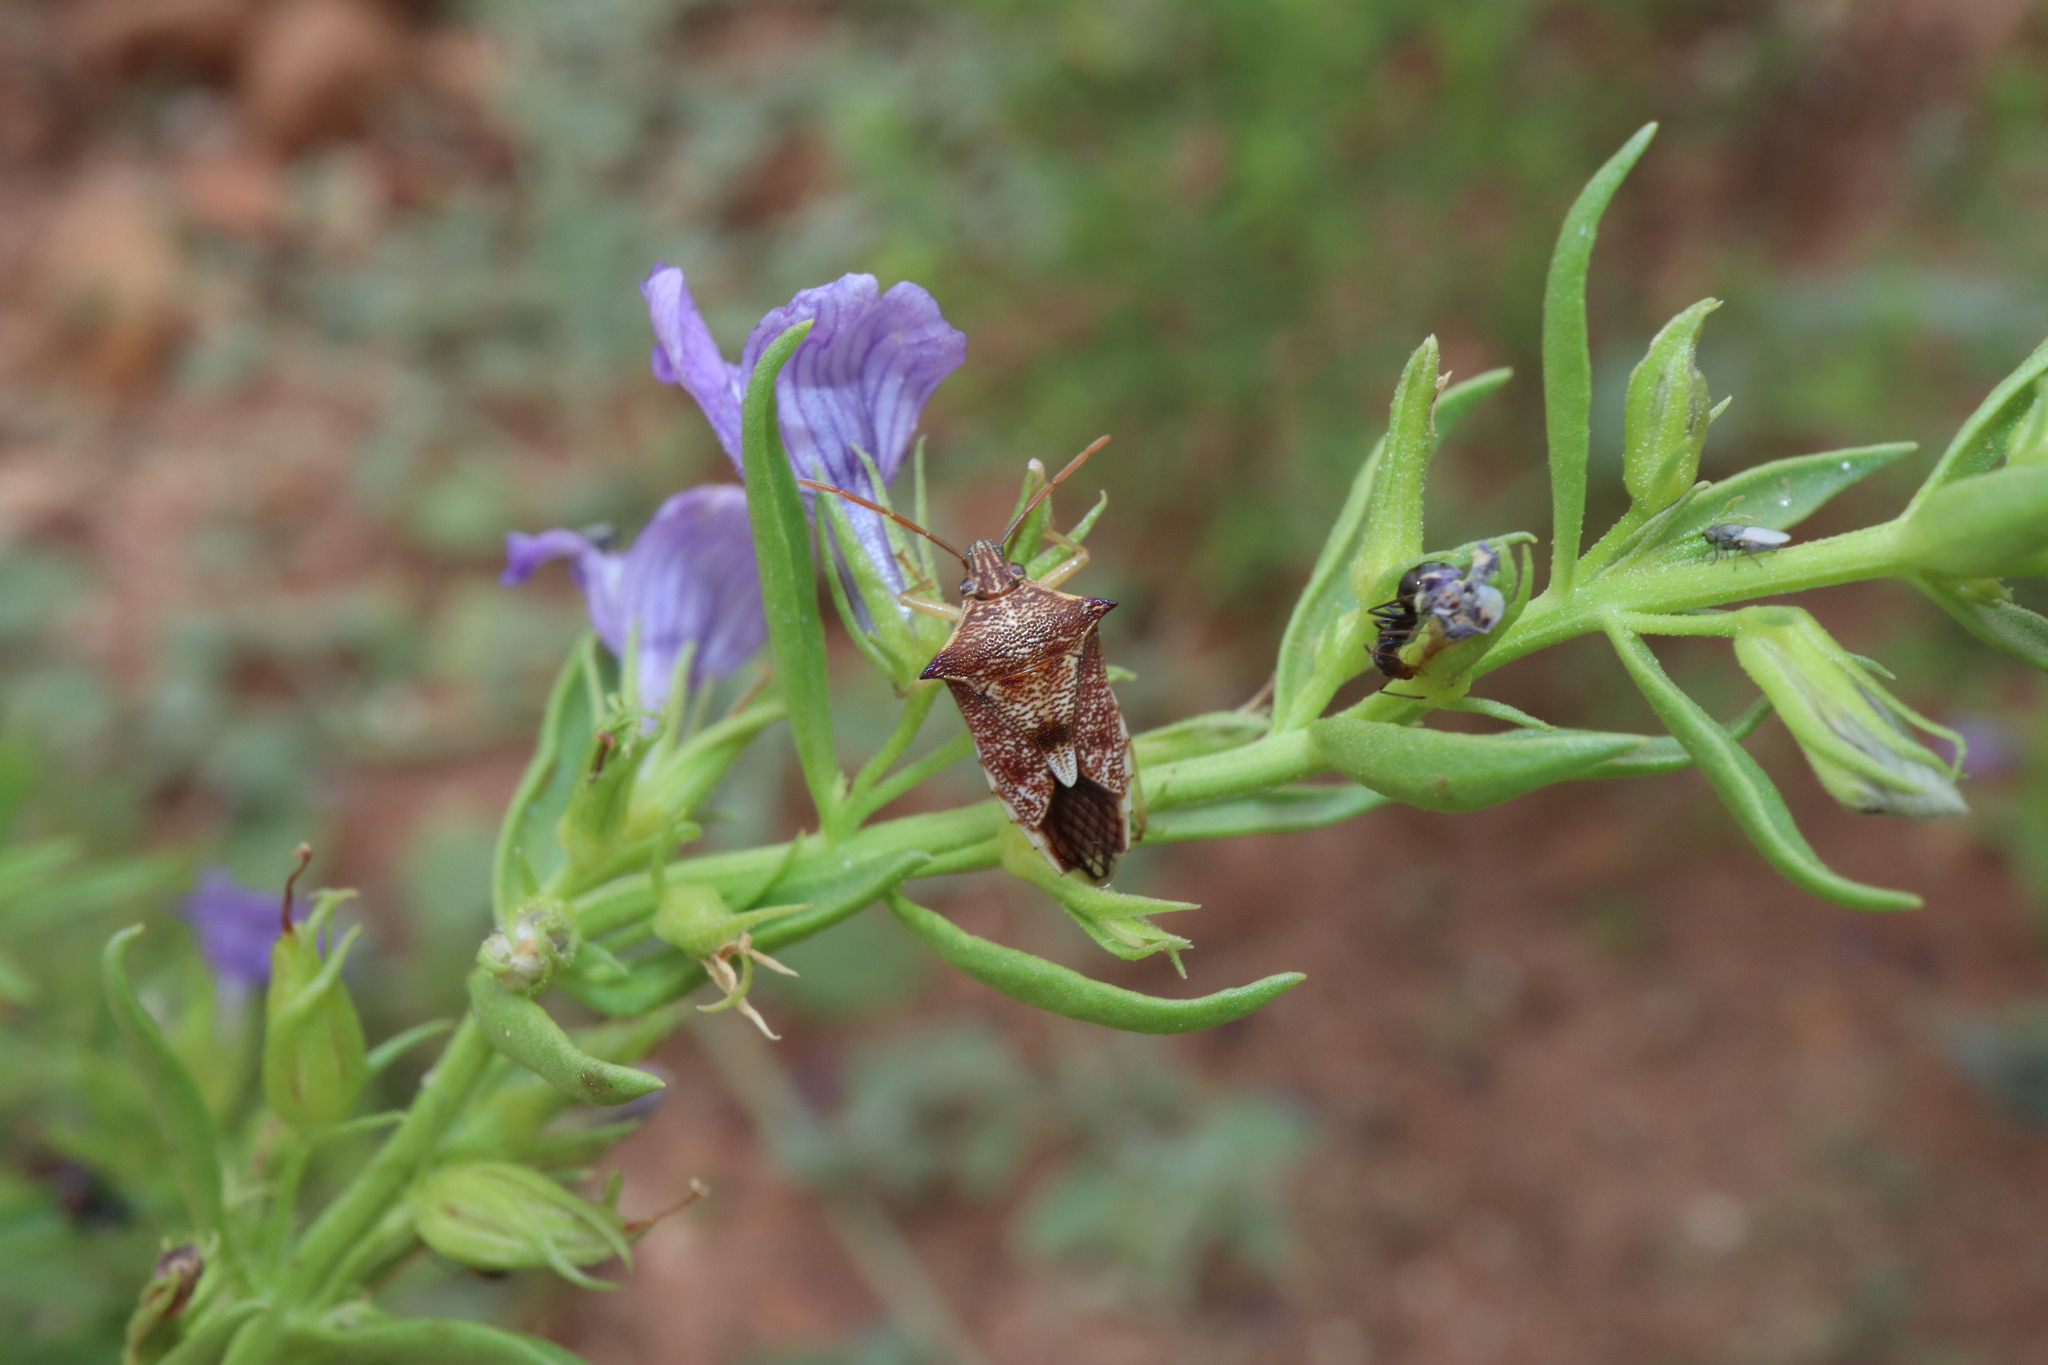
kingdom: Animalia
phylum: Arthropoda
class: Insecta
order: Hemiptera
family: Pentatomidae
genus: Oechalia
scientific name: Oechalia schellenbergii
